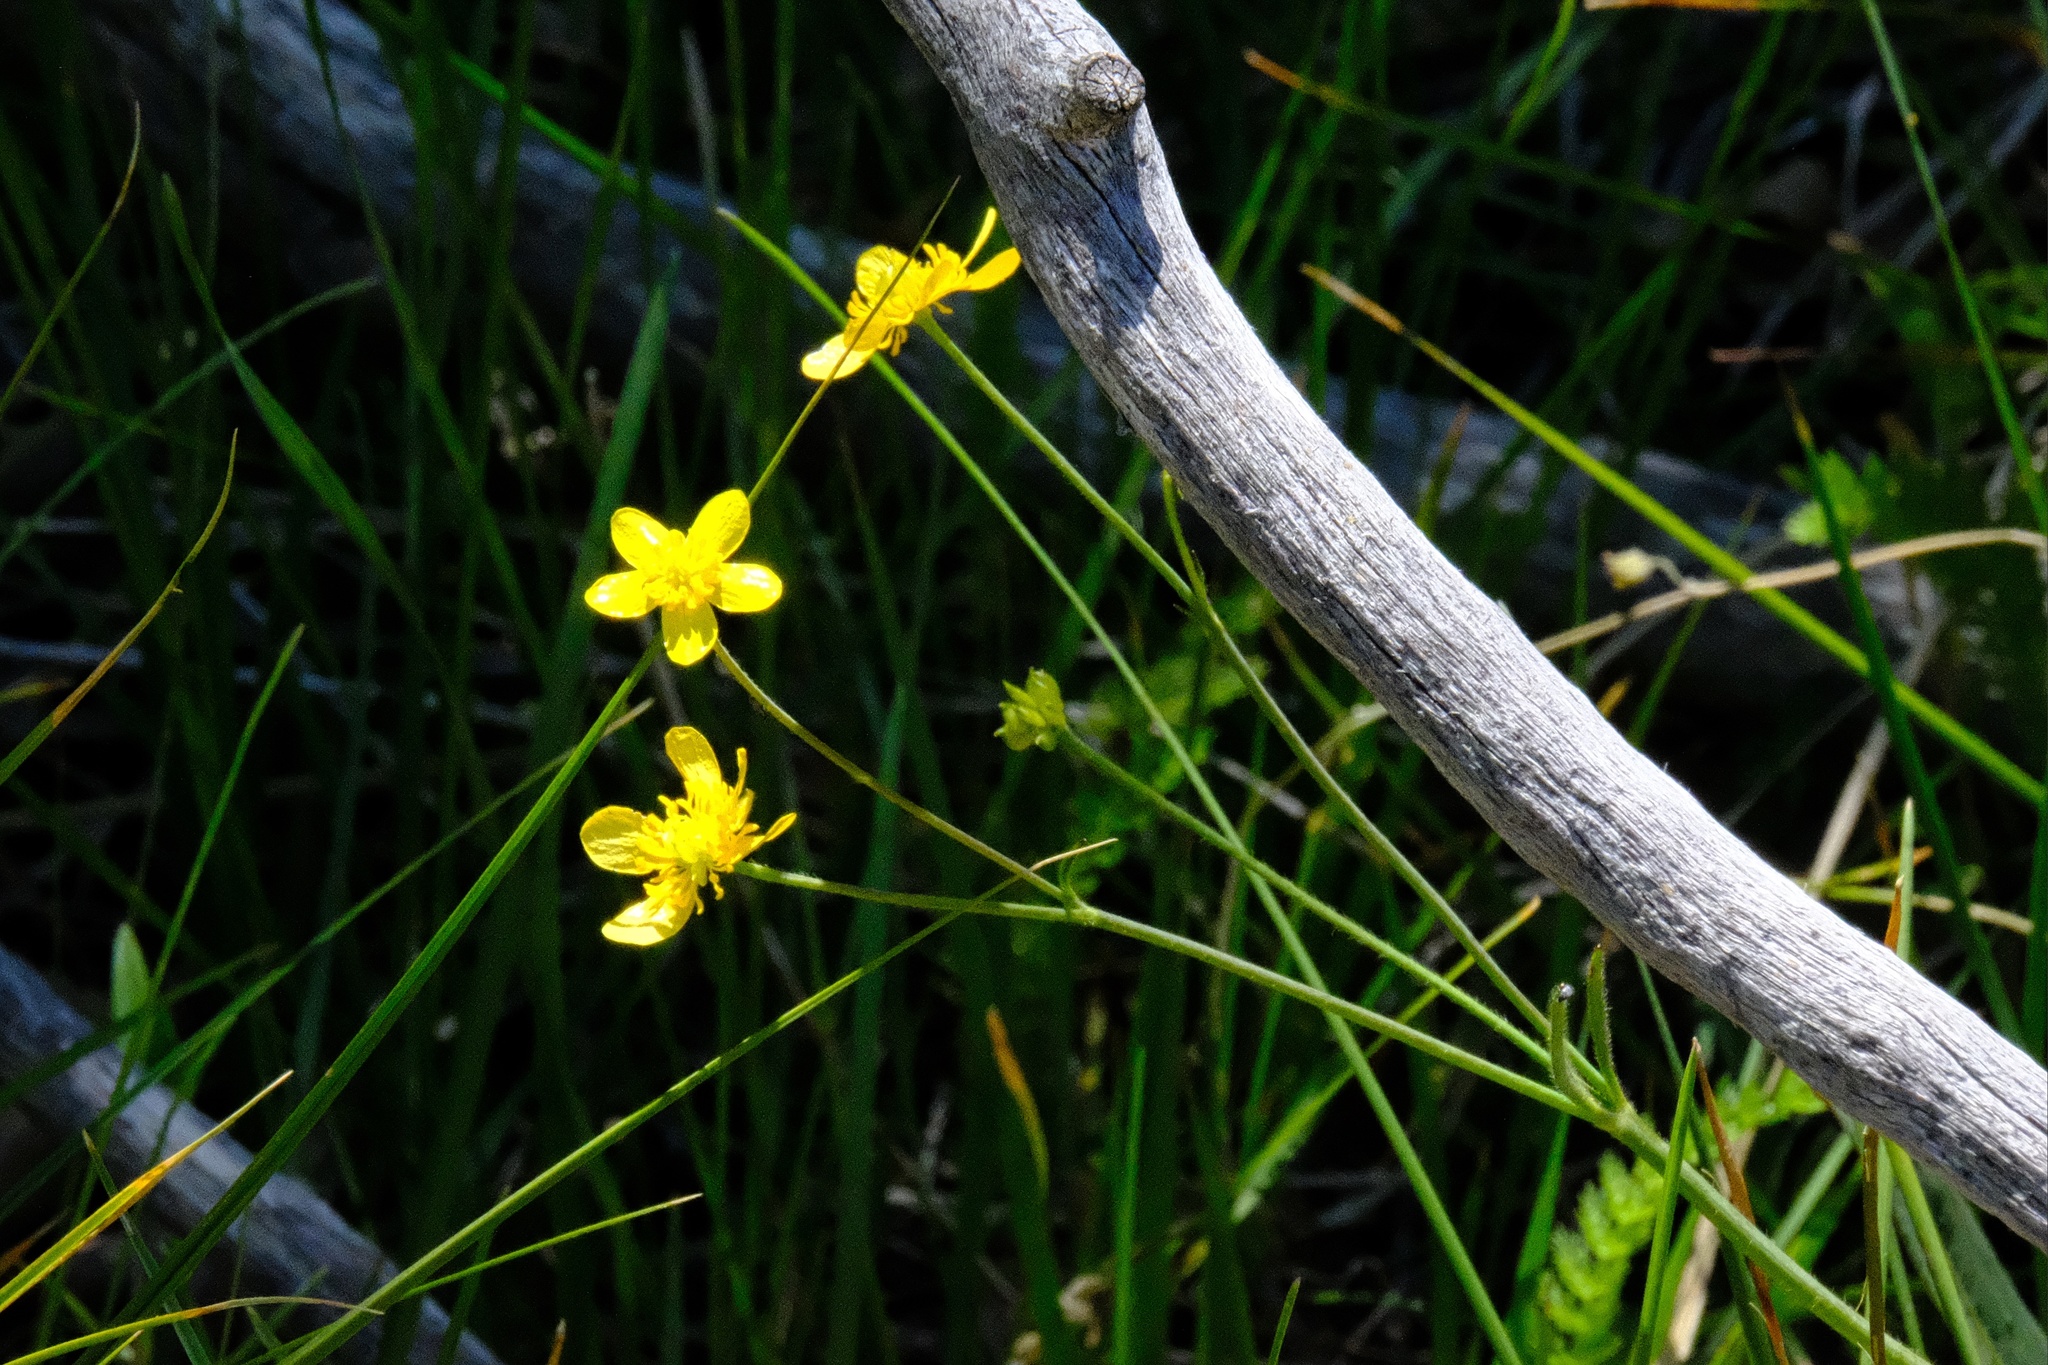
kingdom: Plantae
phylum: Tracheophyta
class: Magnoliopsida
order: Ranunculales
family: Ranunculaceae
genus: Ranunculus
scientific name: Ranunculus occidentalis
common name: Western buttercup
